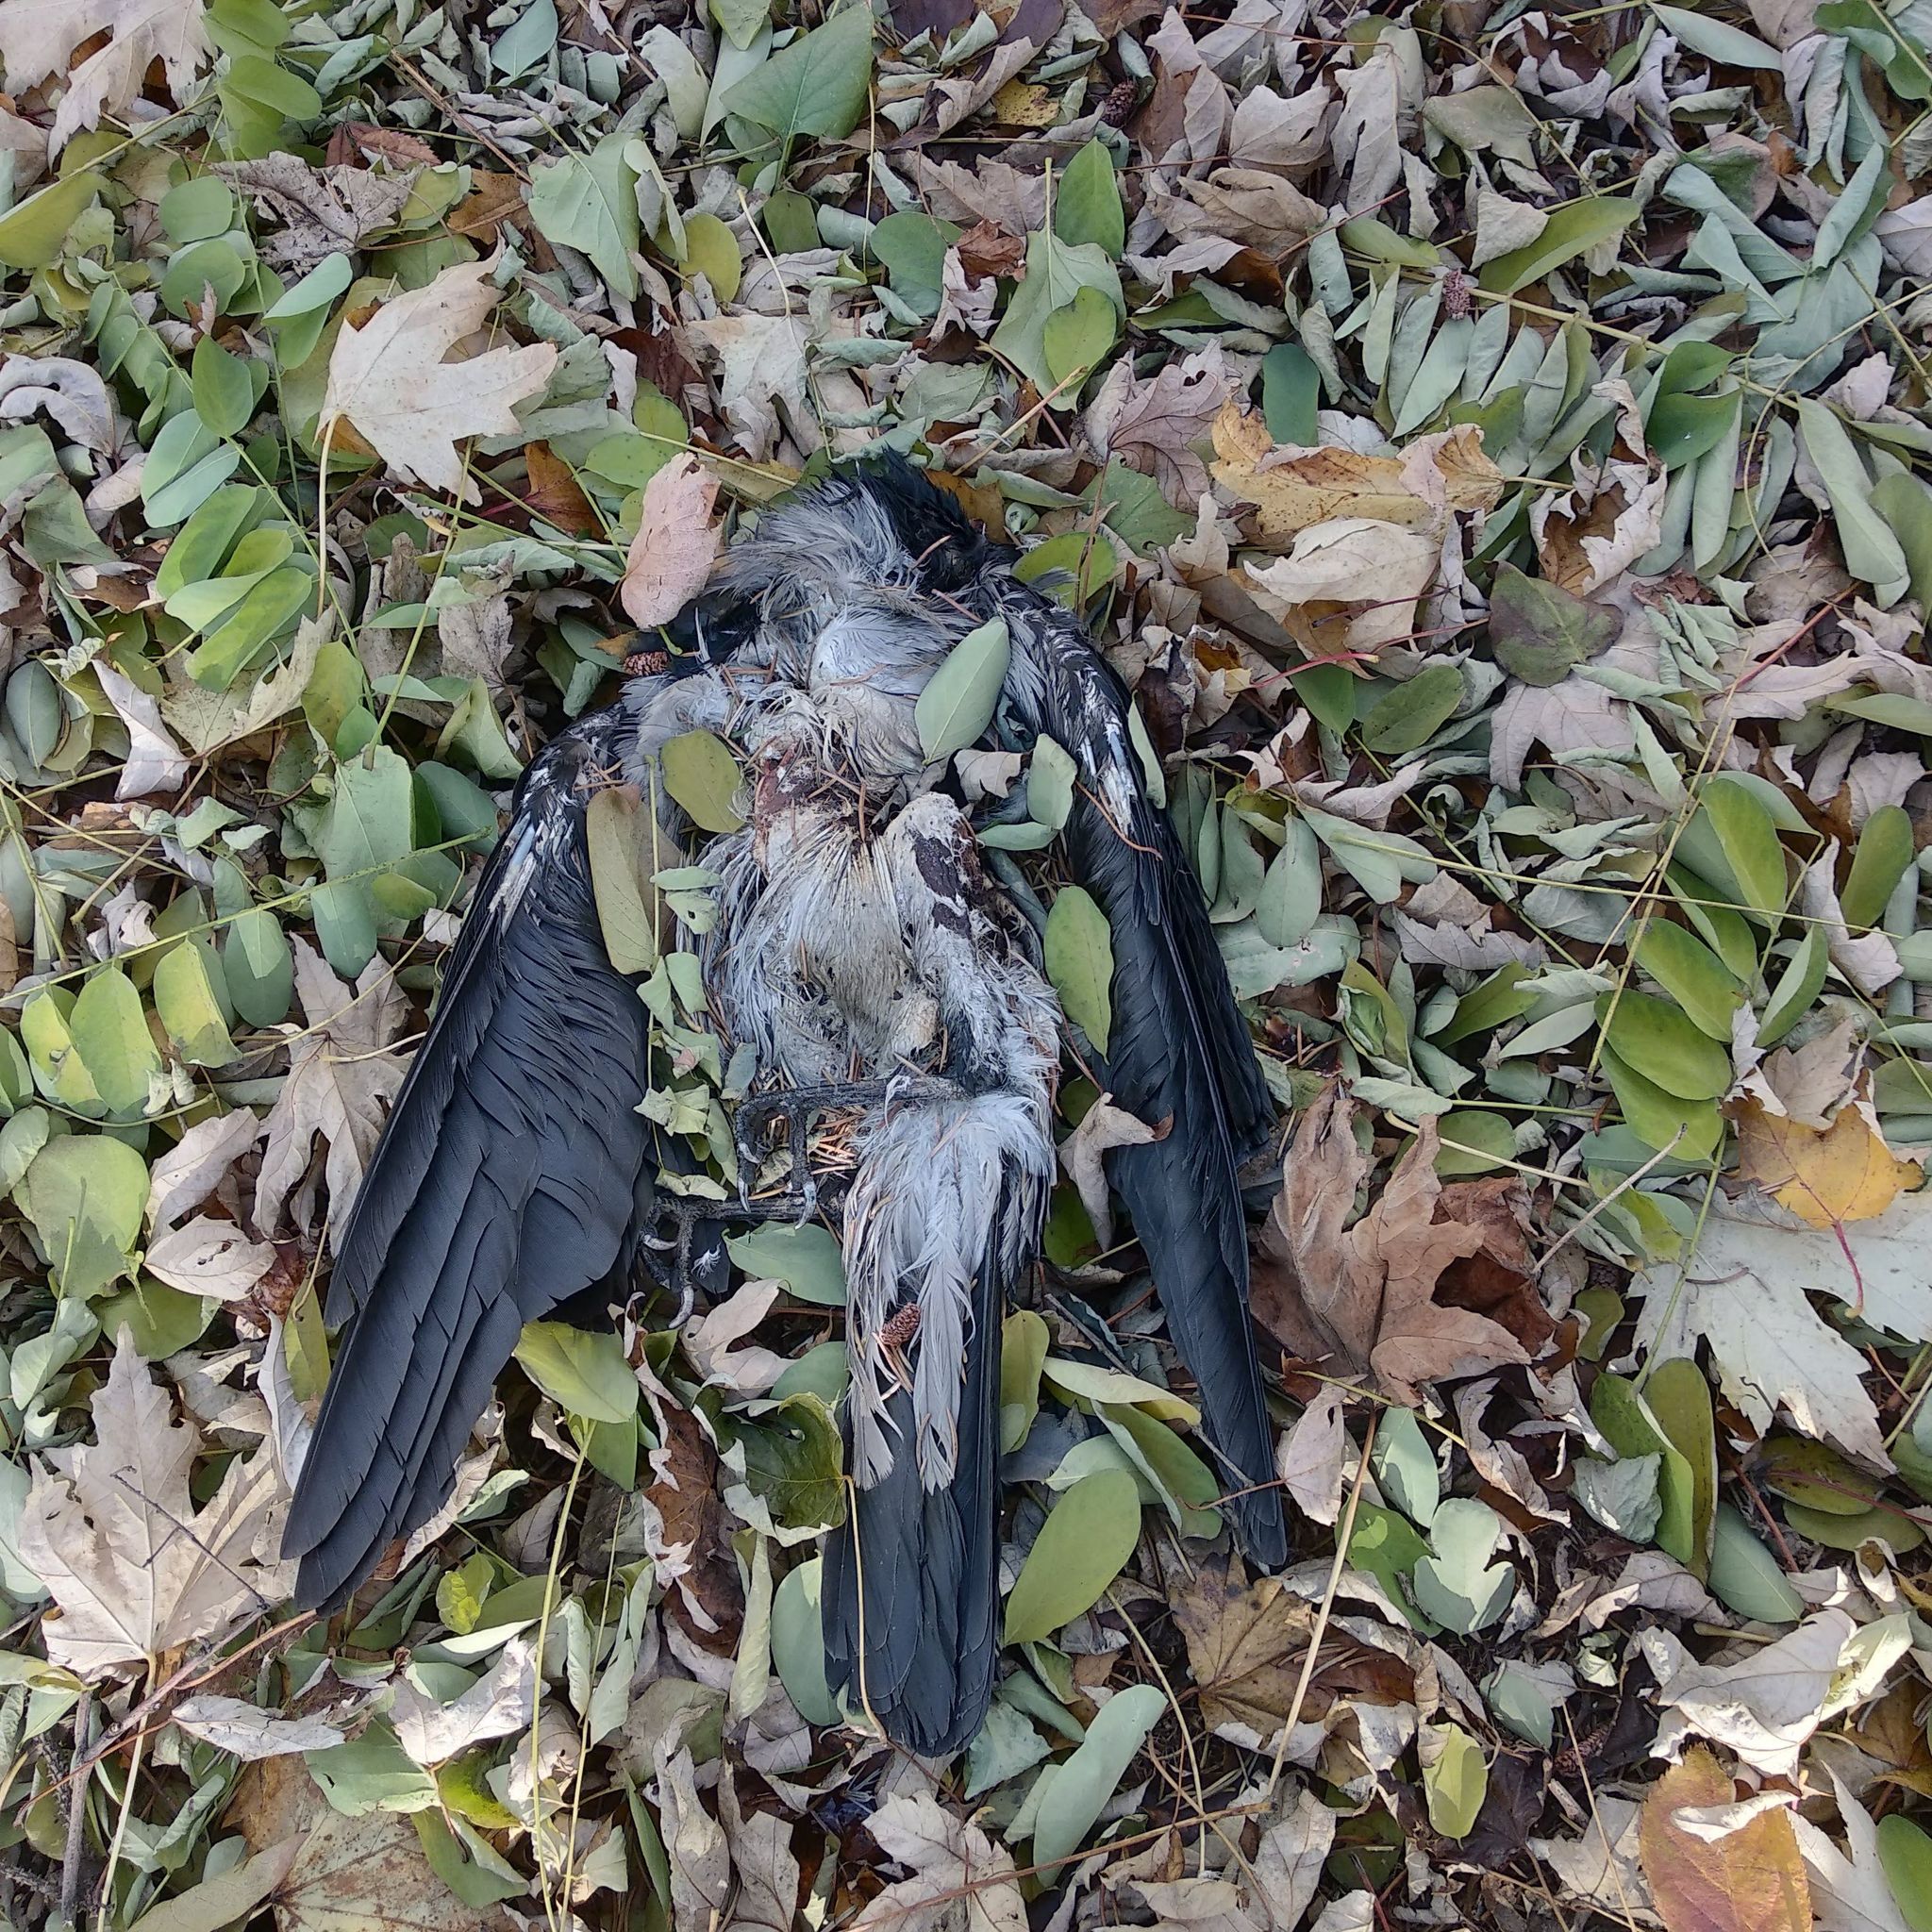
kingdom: Animalia
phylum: Chordata
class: Aves
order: Passeriformes
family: Corvidae
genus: Corvus
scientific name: Corvus cornix
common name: Hooded crow
